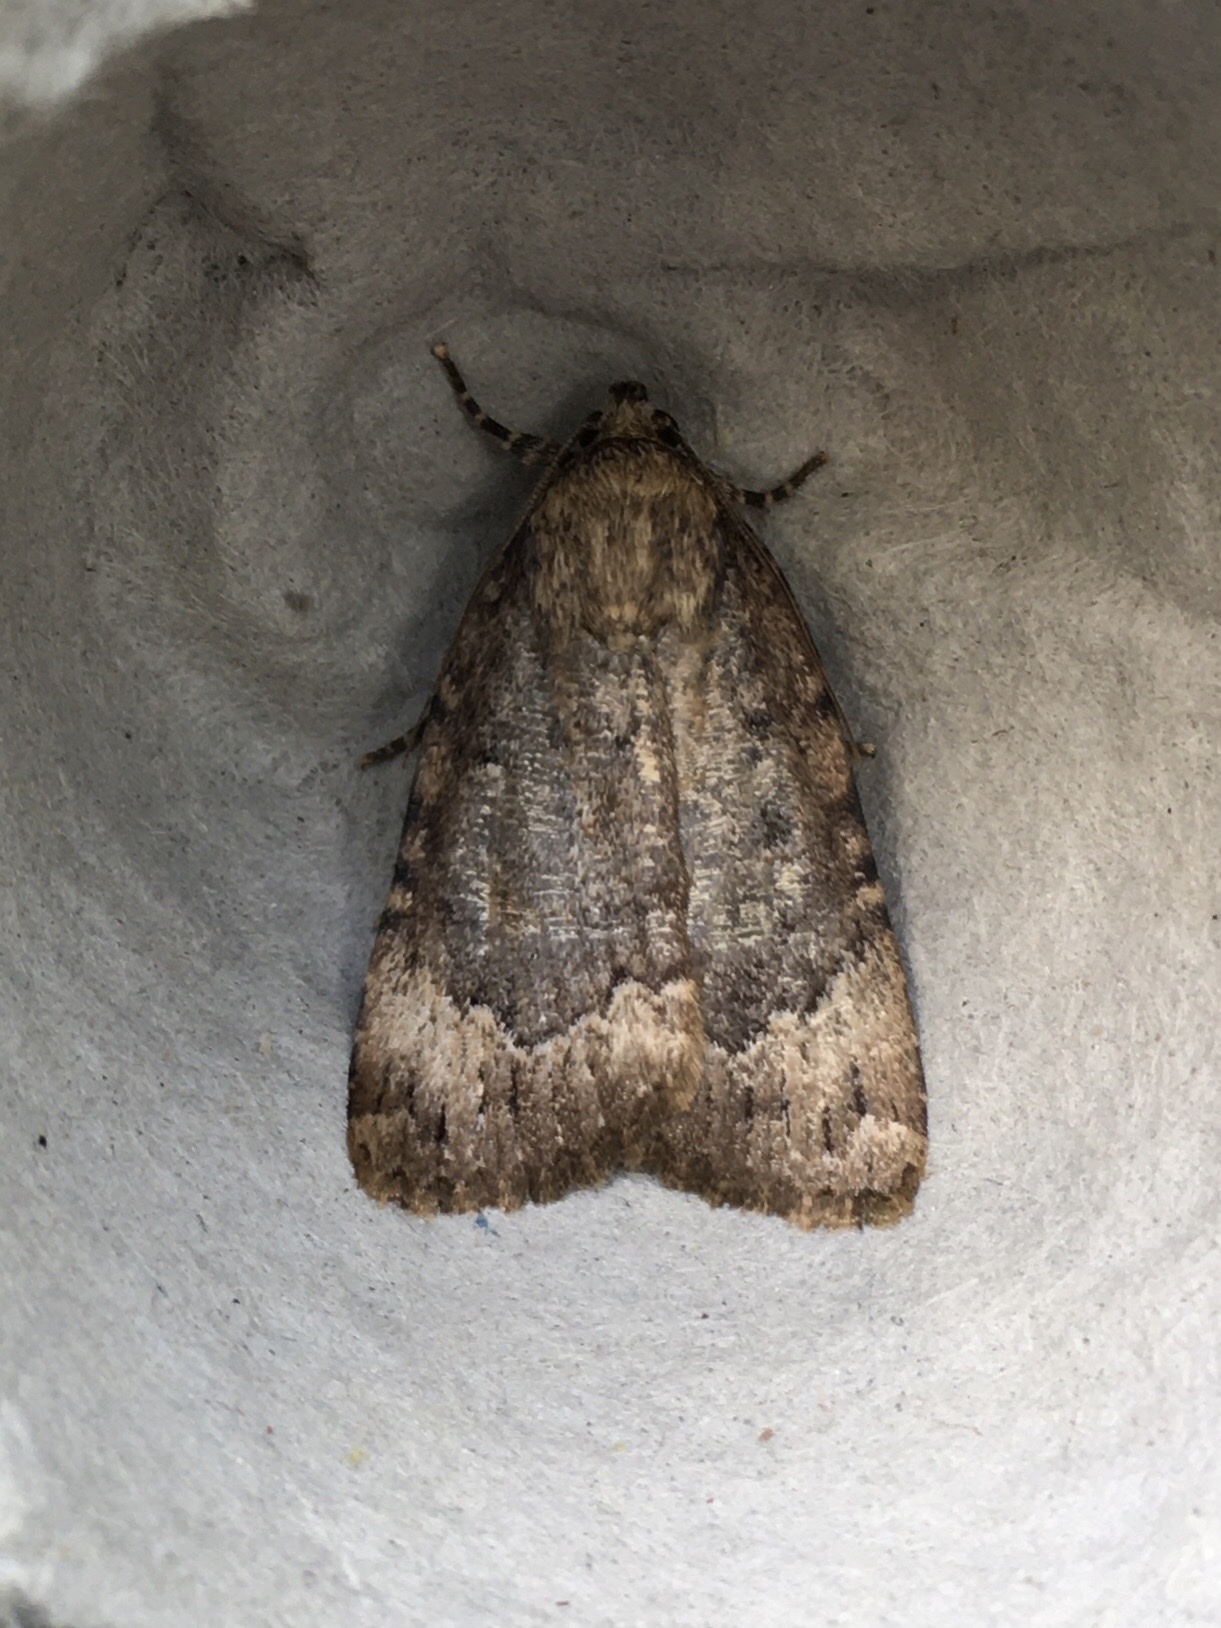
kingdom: Animalia
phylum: Arthropoda
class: Insecta
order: Lepidoptera
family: Noctuidae
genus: Amphipyra
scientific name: Amphipyra pyramidoides
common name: American copper underwing
